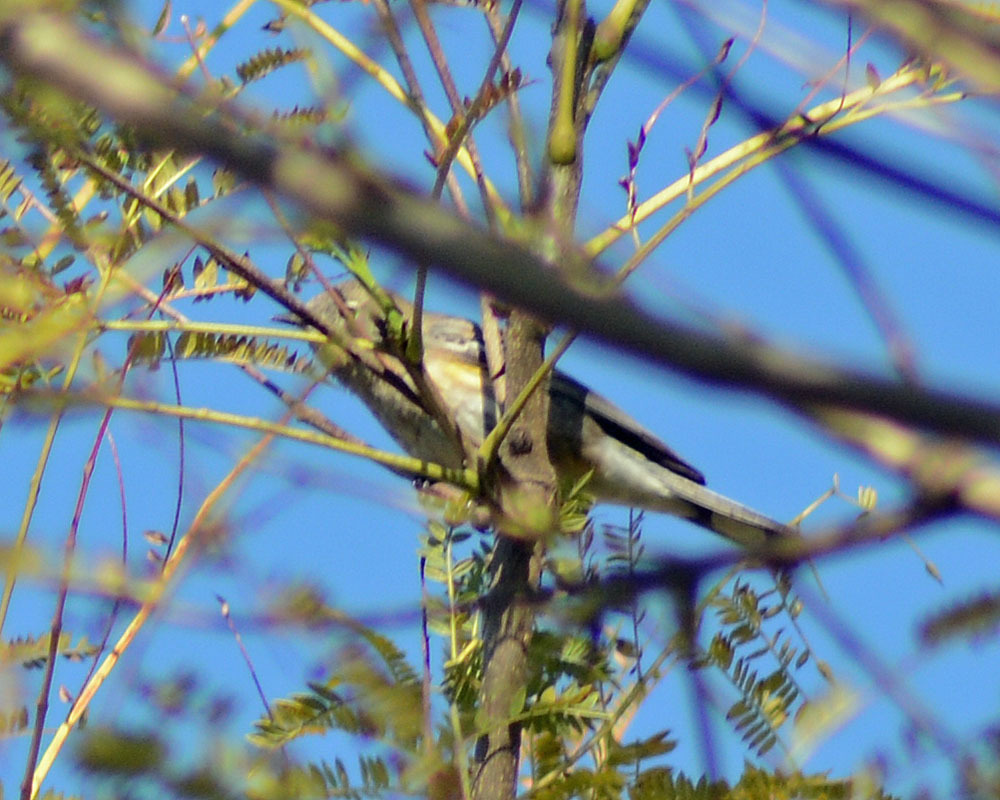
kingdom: Animalia
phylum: Chordata
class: Aves
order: Passeriformes
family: Parulidae
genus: Setophaga
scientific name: Setophaga coronata
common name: Myrtle warbler
